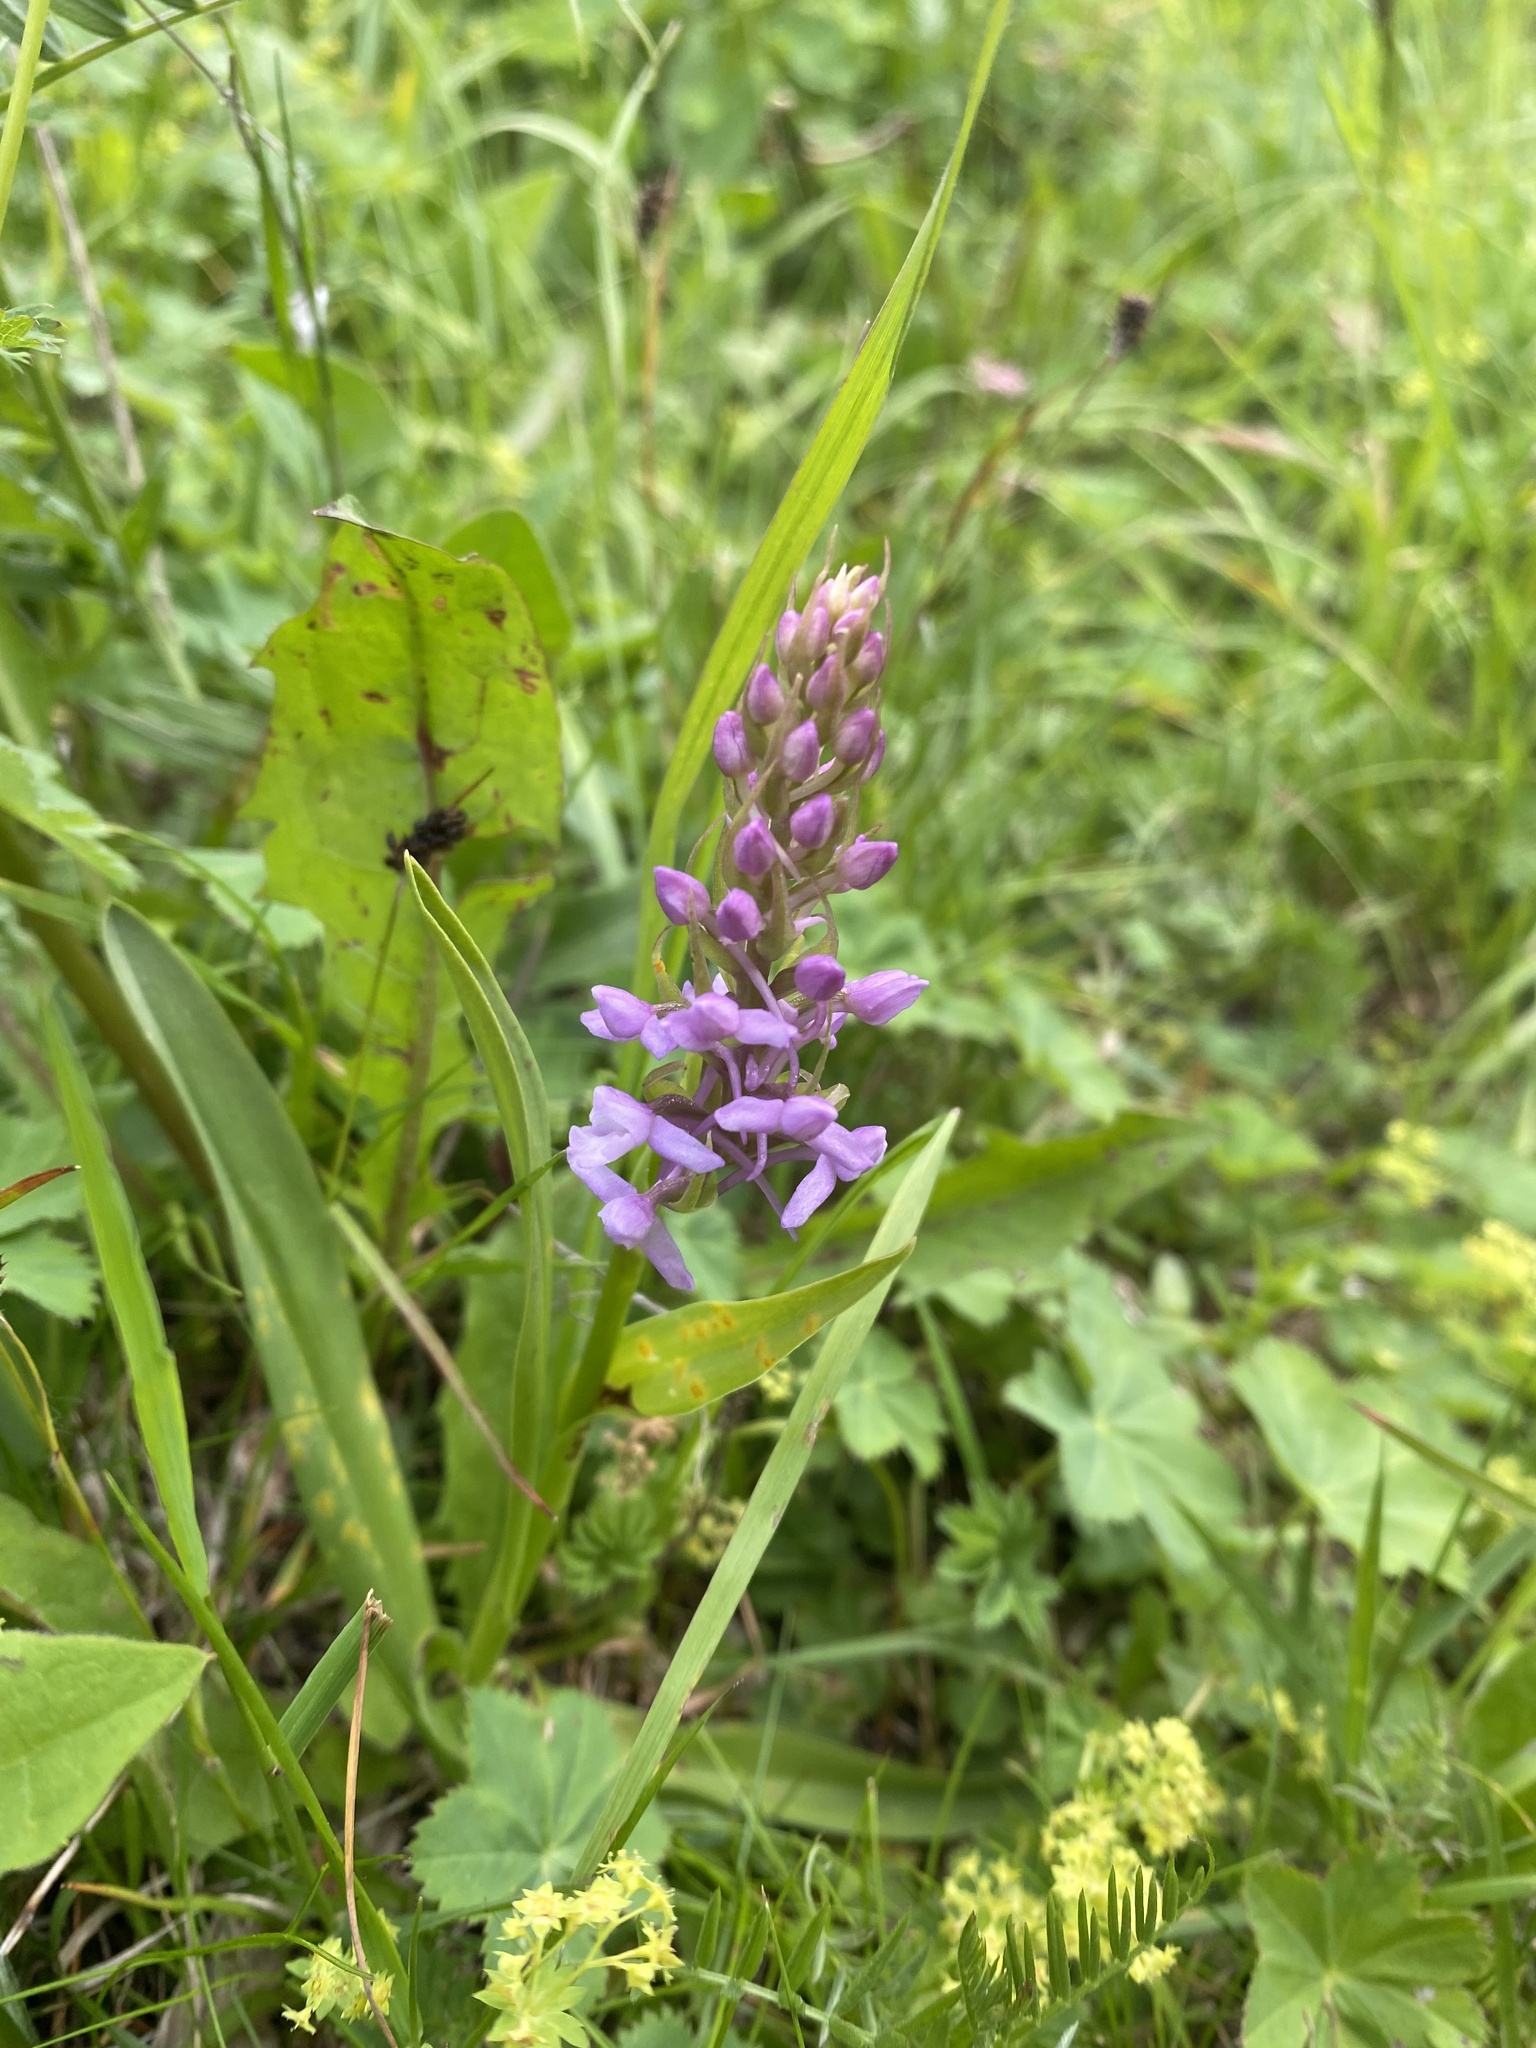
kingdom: Plantae
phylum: Tracheophyta
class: Liliopsida
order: Asparagales
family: Orchidaceae
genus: Gymnadenia
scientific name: Gymnadenia conopsea
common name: Fragrant orchid
